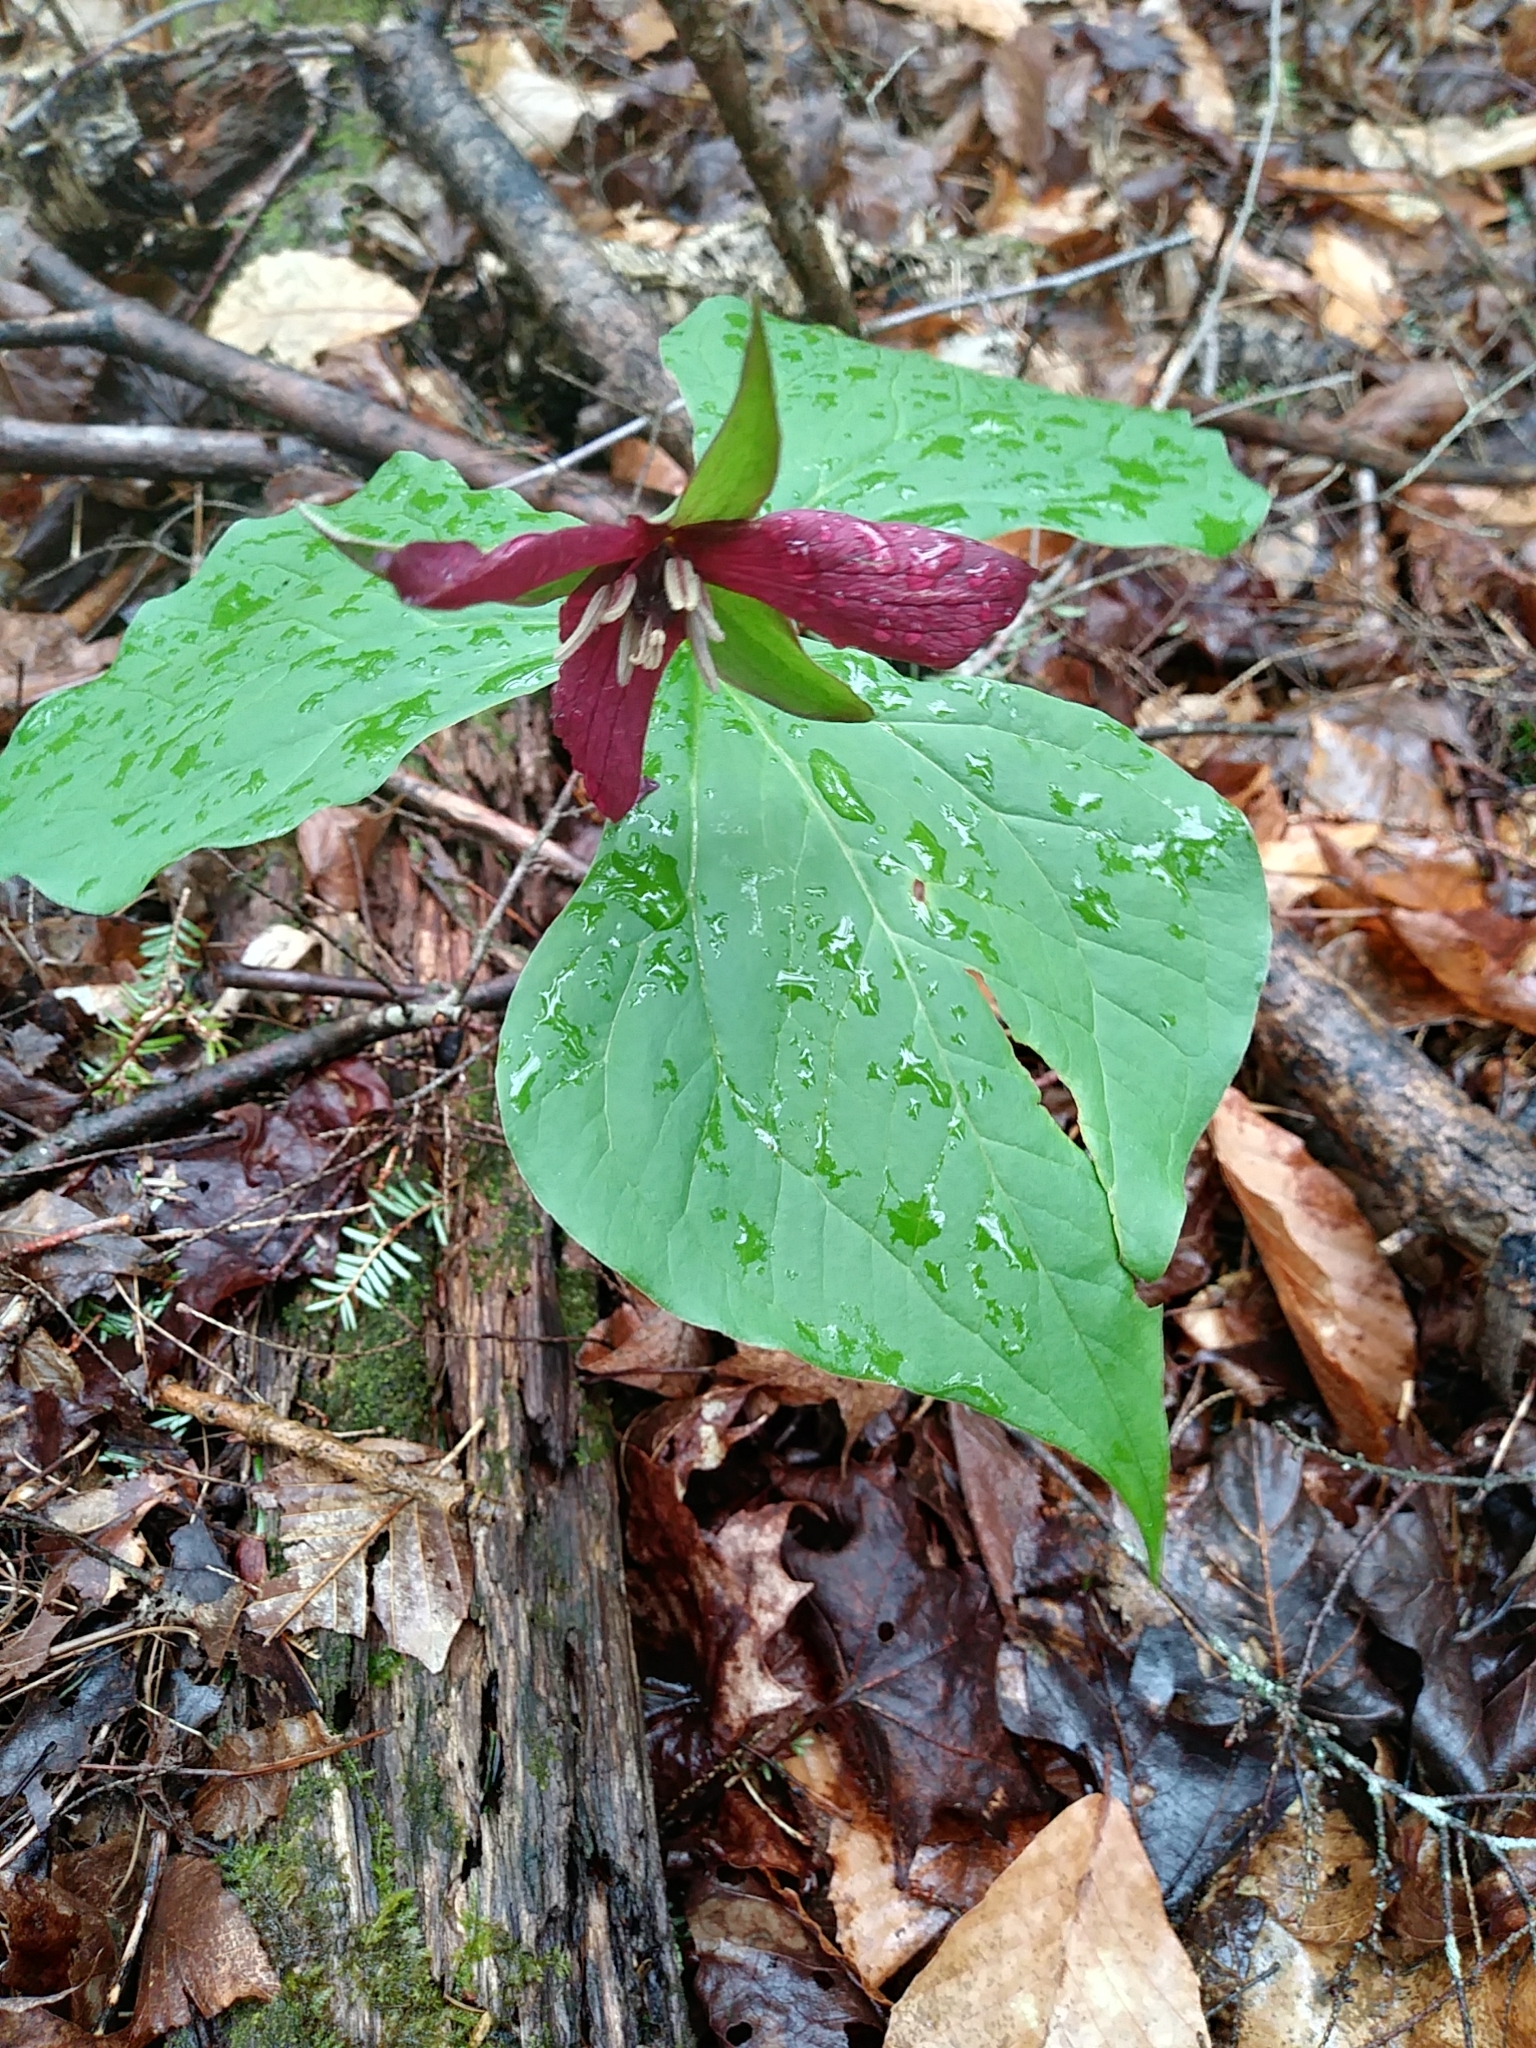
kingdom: Plantae
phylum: Tracheophyta
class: Liliopsida
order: Liliales
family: Melanthiaceae
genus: Trillium
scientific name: Trillium erectum
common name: Purple trillium
